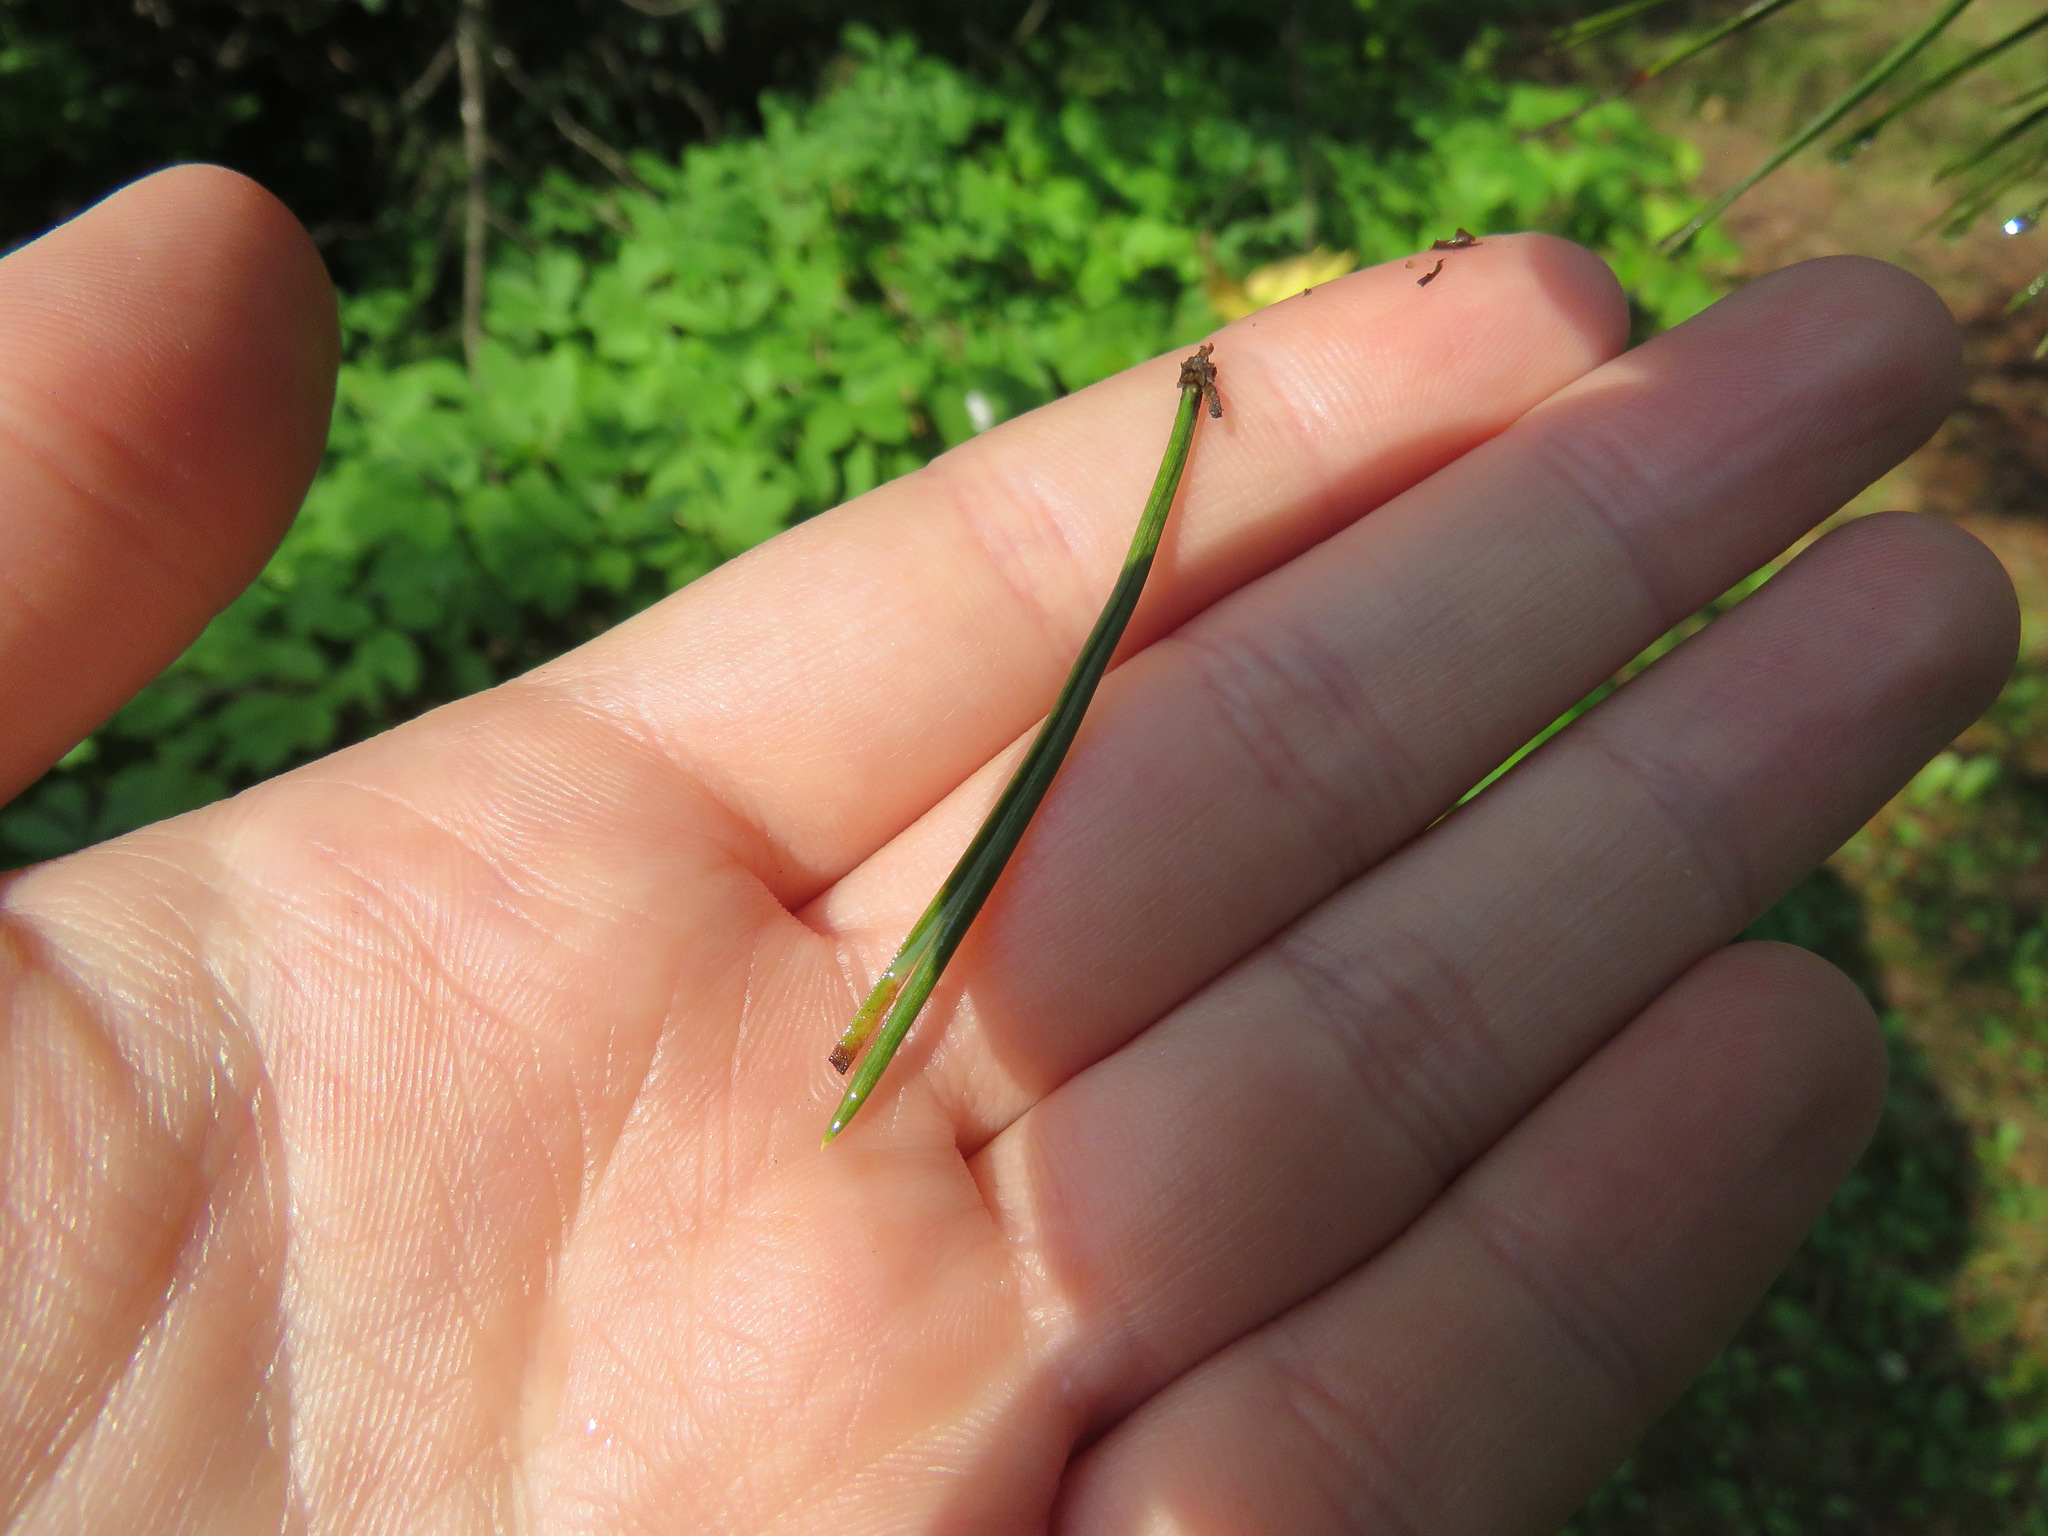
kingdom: Plantae
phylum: Tracheophyta
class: Pinopsida
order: Pinales
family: Pinaceae
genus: Pinus
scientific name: Pinus contorta
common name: Lodgepole pine
